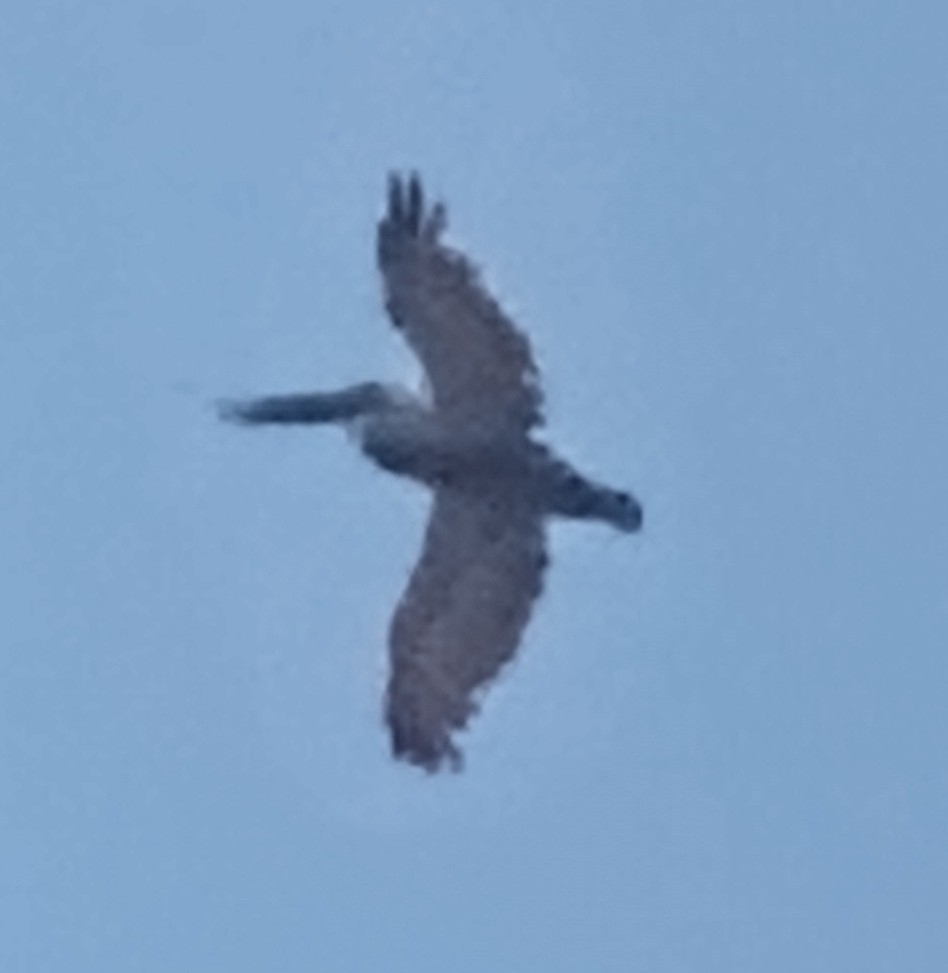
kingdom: Animalia
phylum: Chordata
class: Aves
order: Pelecaniformes
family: Pelecanidae
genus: Pelecanus
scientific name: Pelecanus occidentalis
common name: Brown pelican
